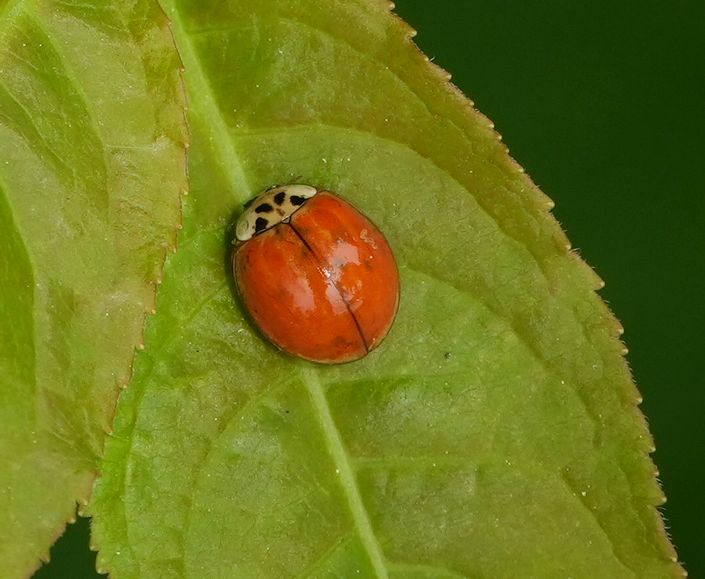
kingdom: Animalia
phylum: Arthropoda
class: Insecta
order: Coleoptera
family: Coccinellidae
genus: Harmonia
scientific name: Harmonia axyridis
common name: Harlequin ladybird
